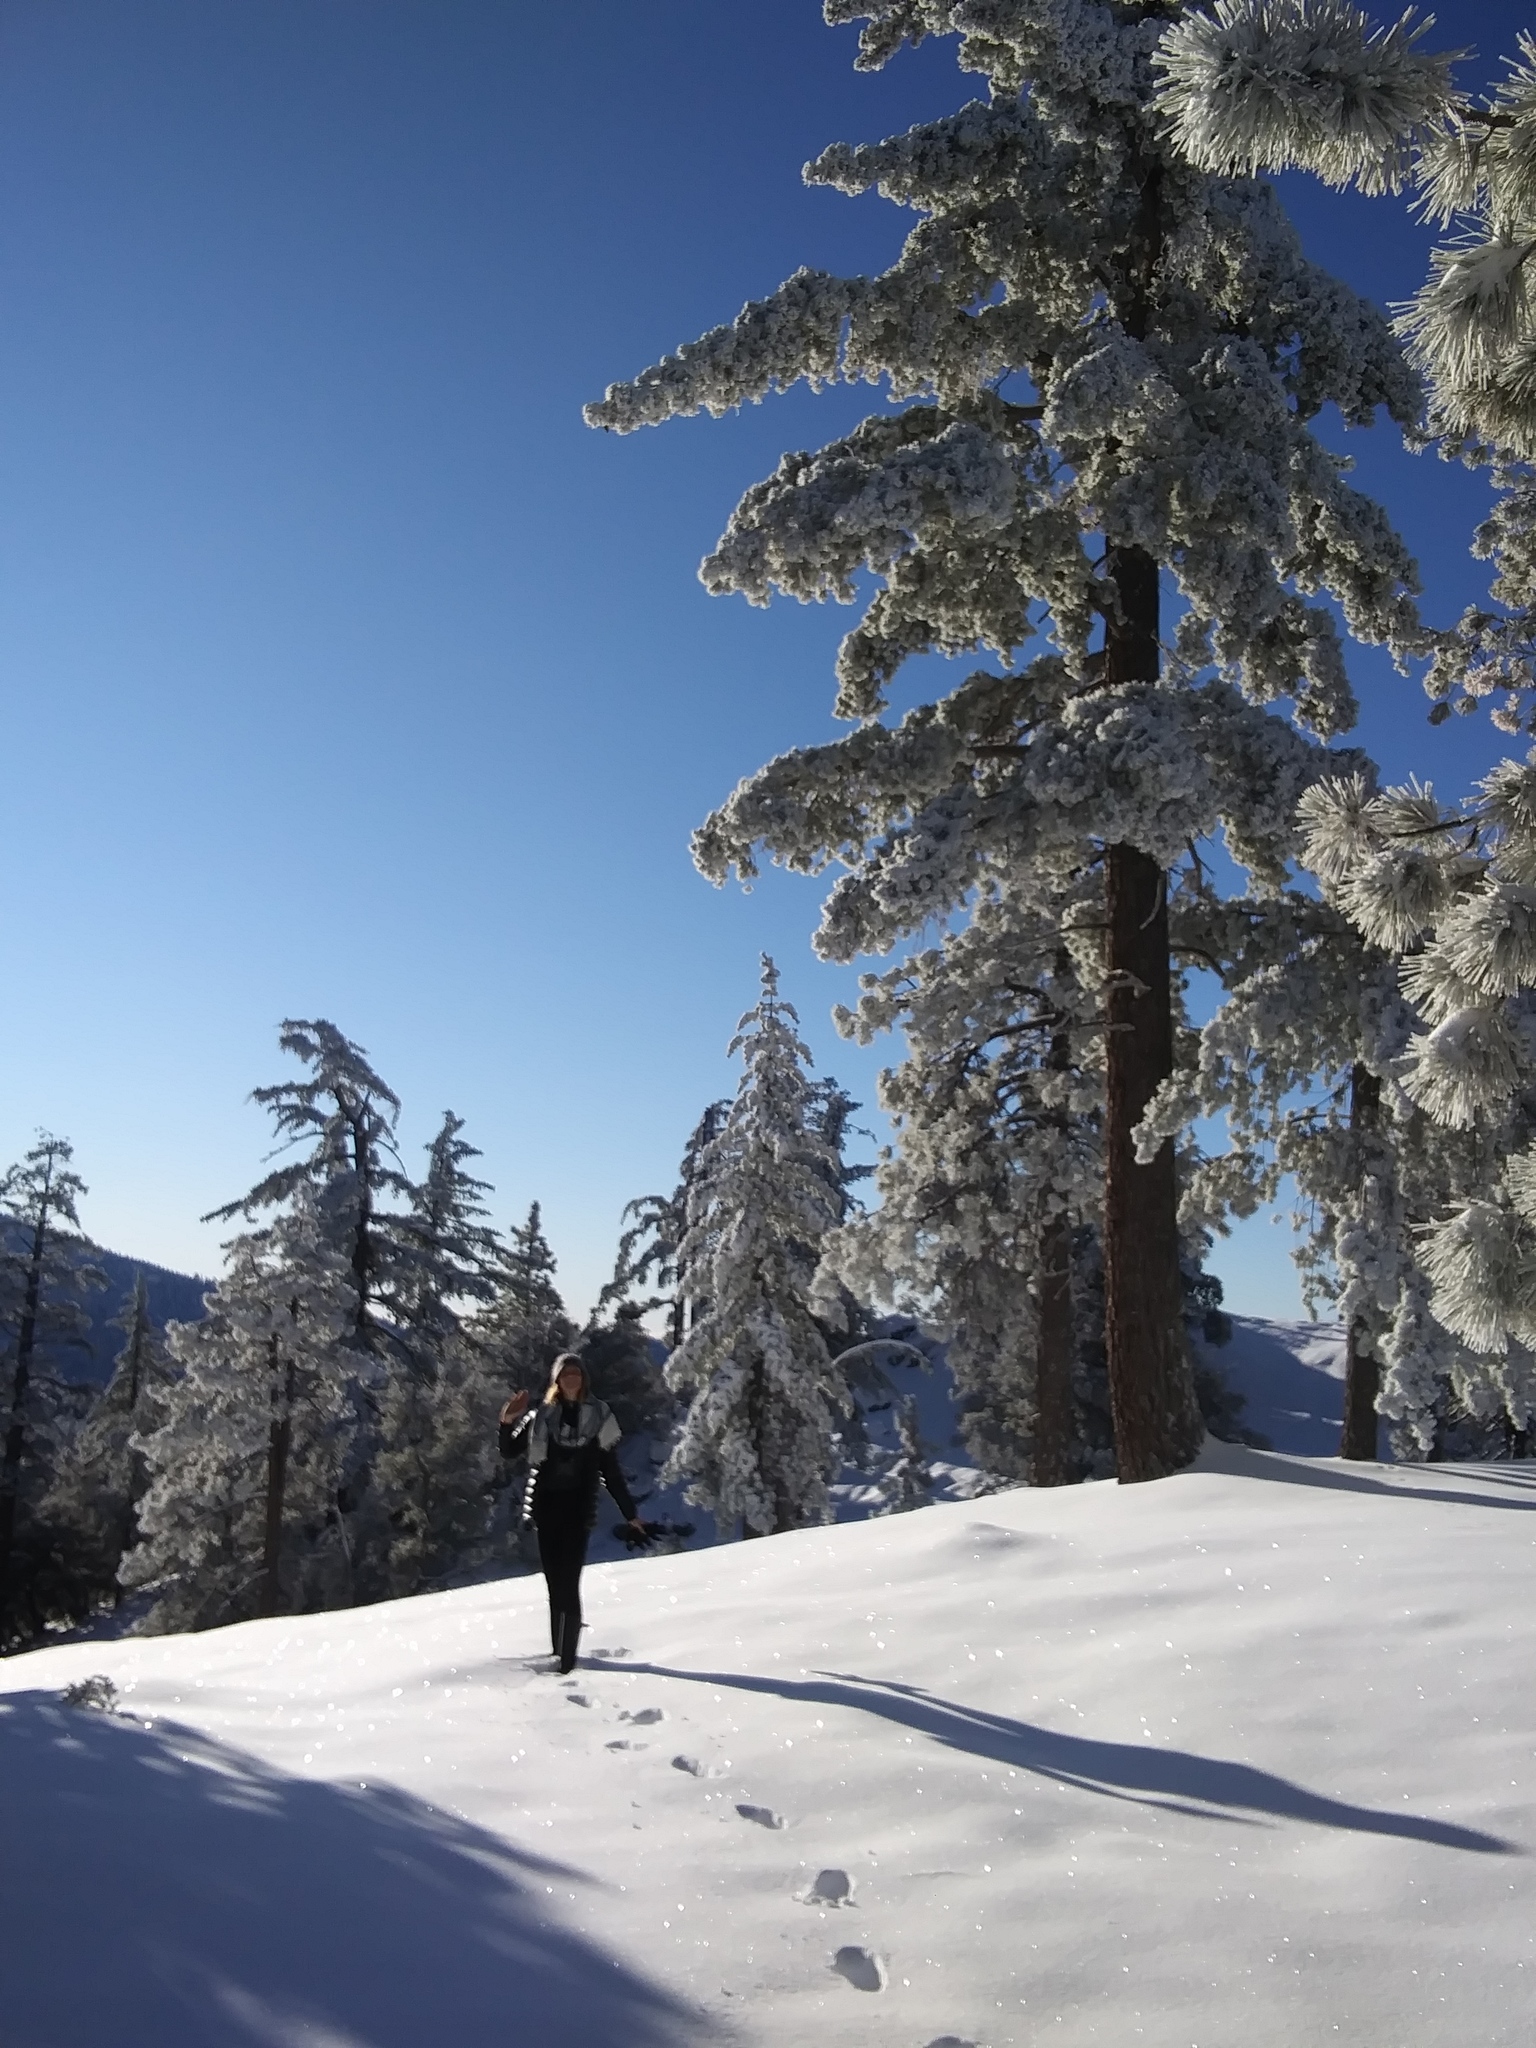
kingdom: Plantae
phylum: Tracheophyta
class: Pinopsida
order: Pinales
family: Pinaceae
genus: Pinus
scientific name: Pinus lambertiana
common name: Sugar pine
